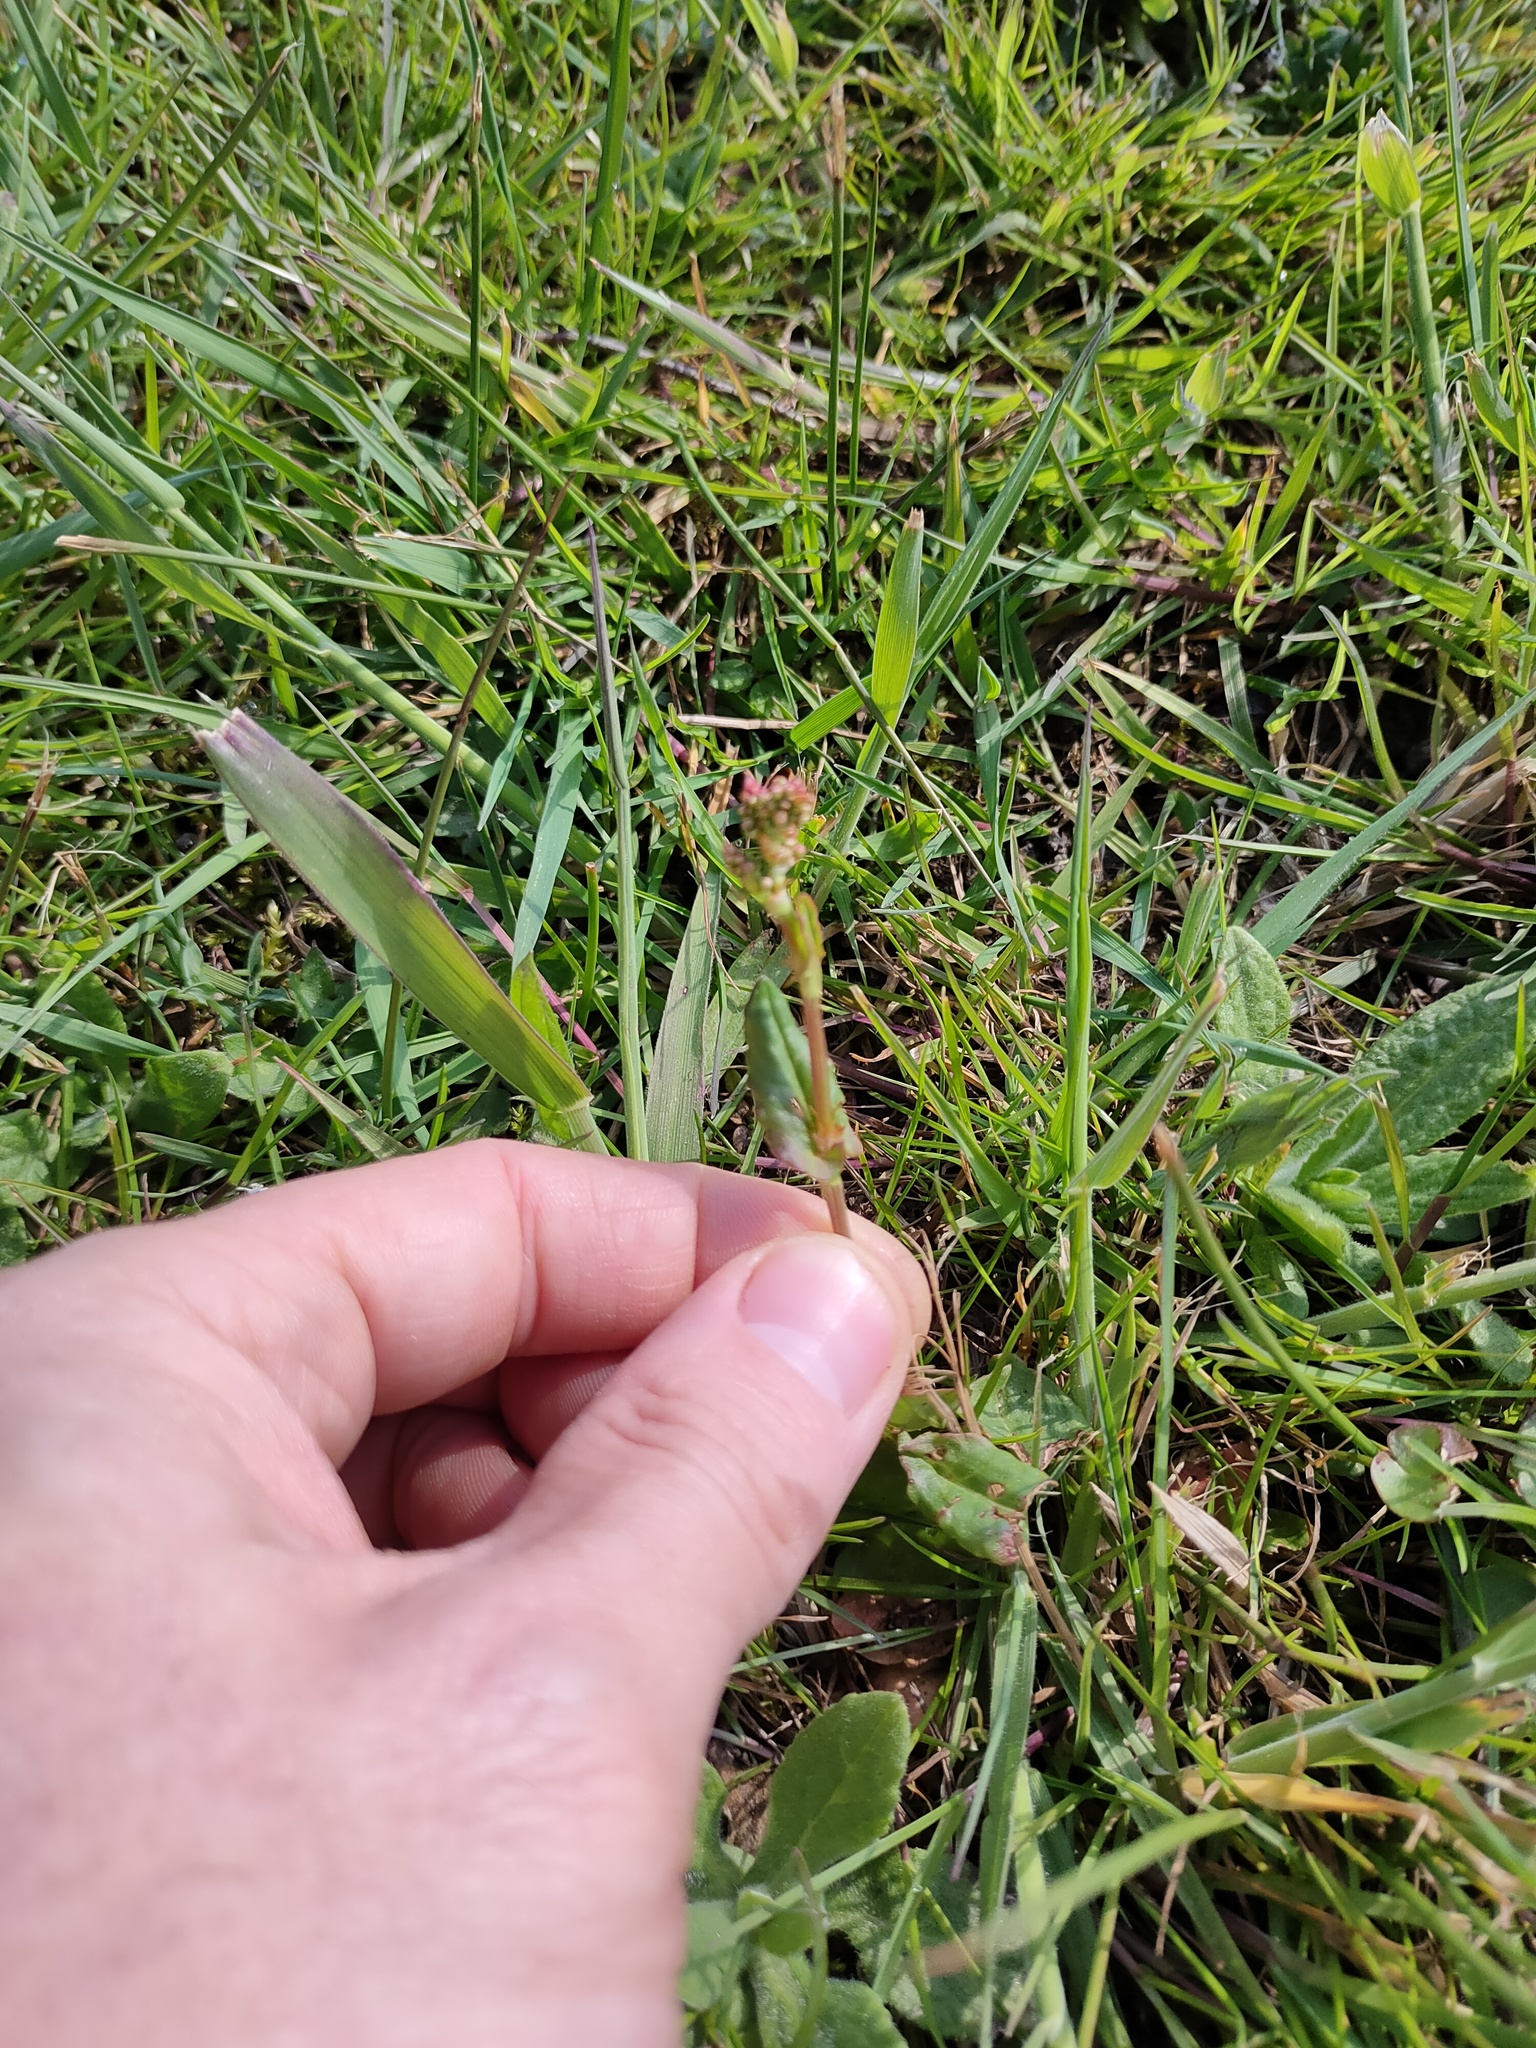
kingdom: Plantae
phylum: Tracheophyta
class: Magnoliopsida
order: Caryophyllales
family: Polygonaceae
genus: Rumex
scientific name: Rumex acetosa
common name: Garden sorrel
